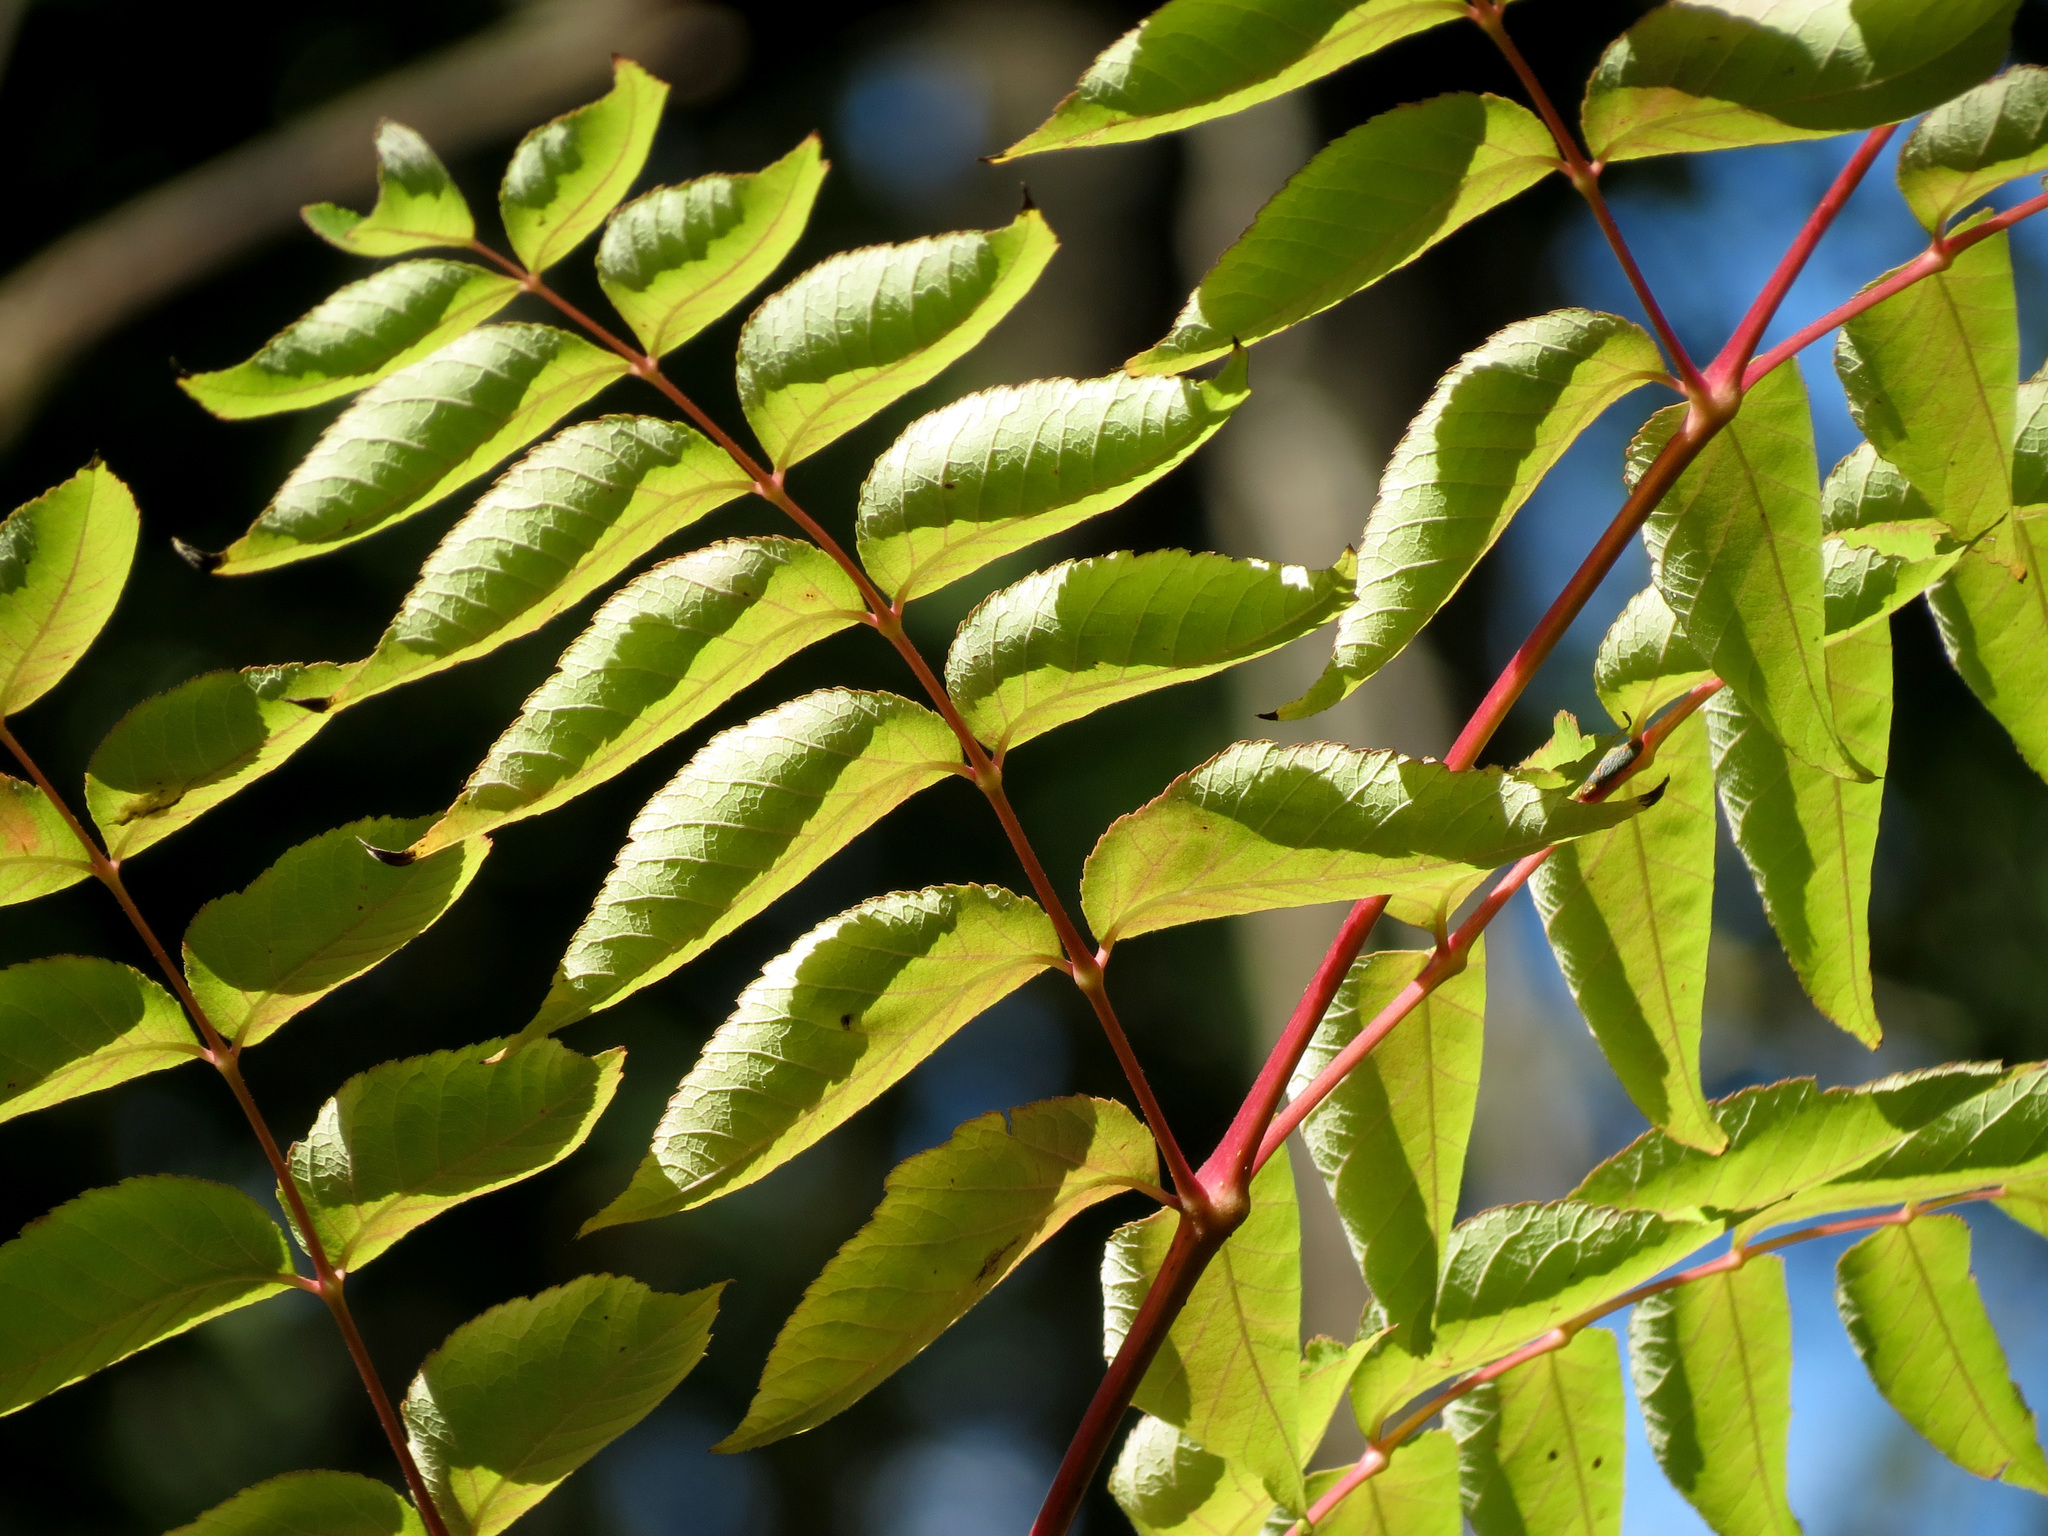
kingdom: Plantae
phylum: Tracheophyta
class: Magnoliopsida
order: Apiales
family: Araliaceae
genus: Aralia
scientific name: Aralia elata
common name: Japanese angelica-tree
